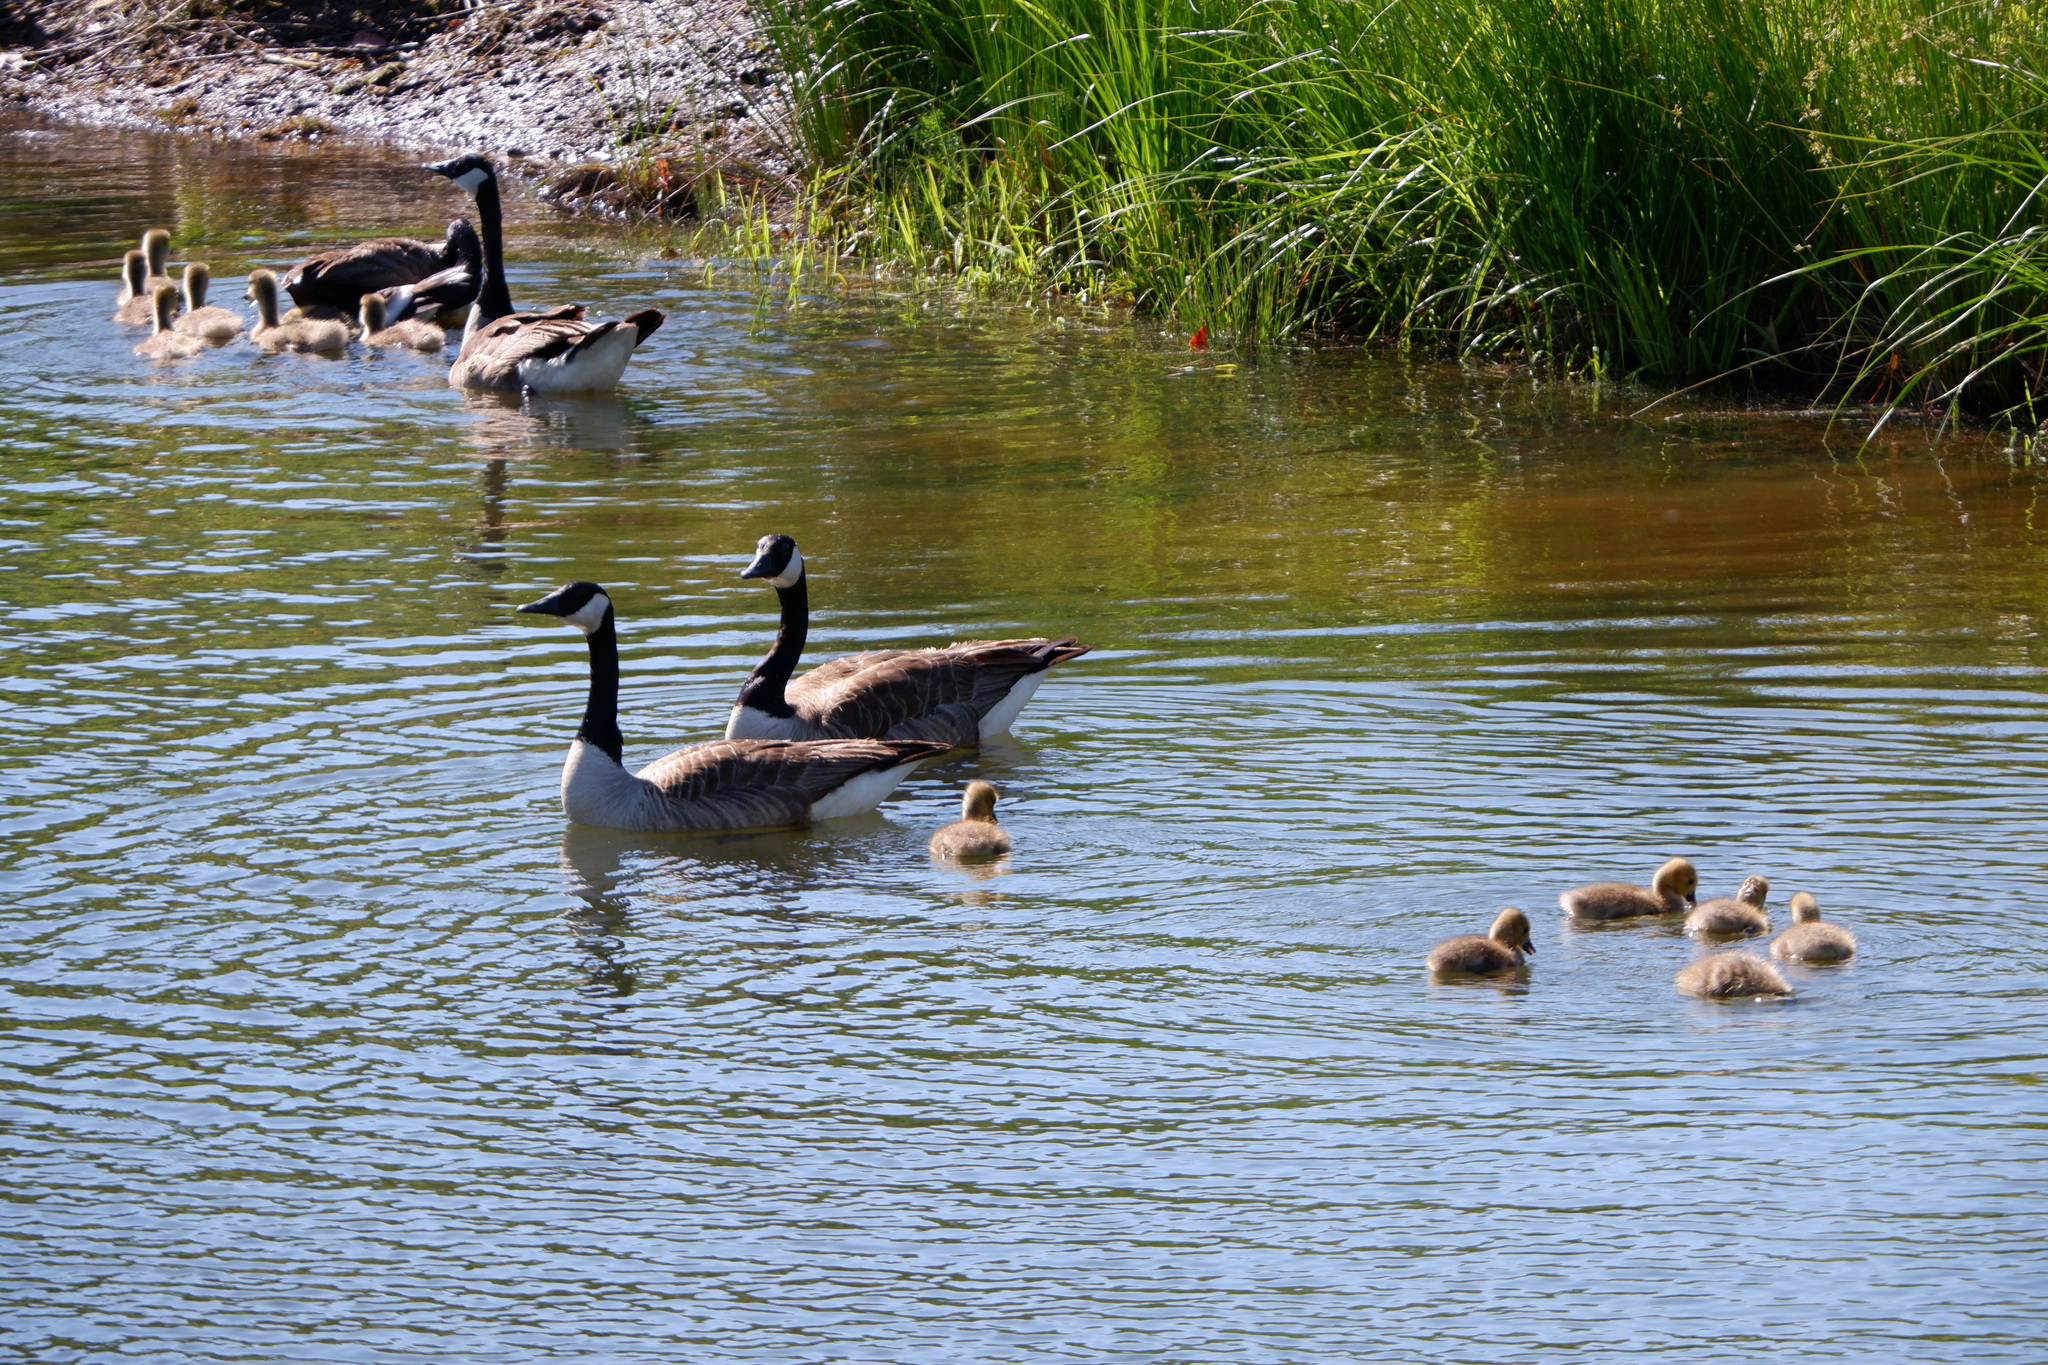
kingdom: Animalia
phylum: Chordata
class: Aves
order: Anseriformes
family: Anatidae
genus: Branta
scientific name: Branta canadensis
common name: Canada goose
